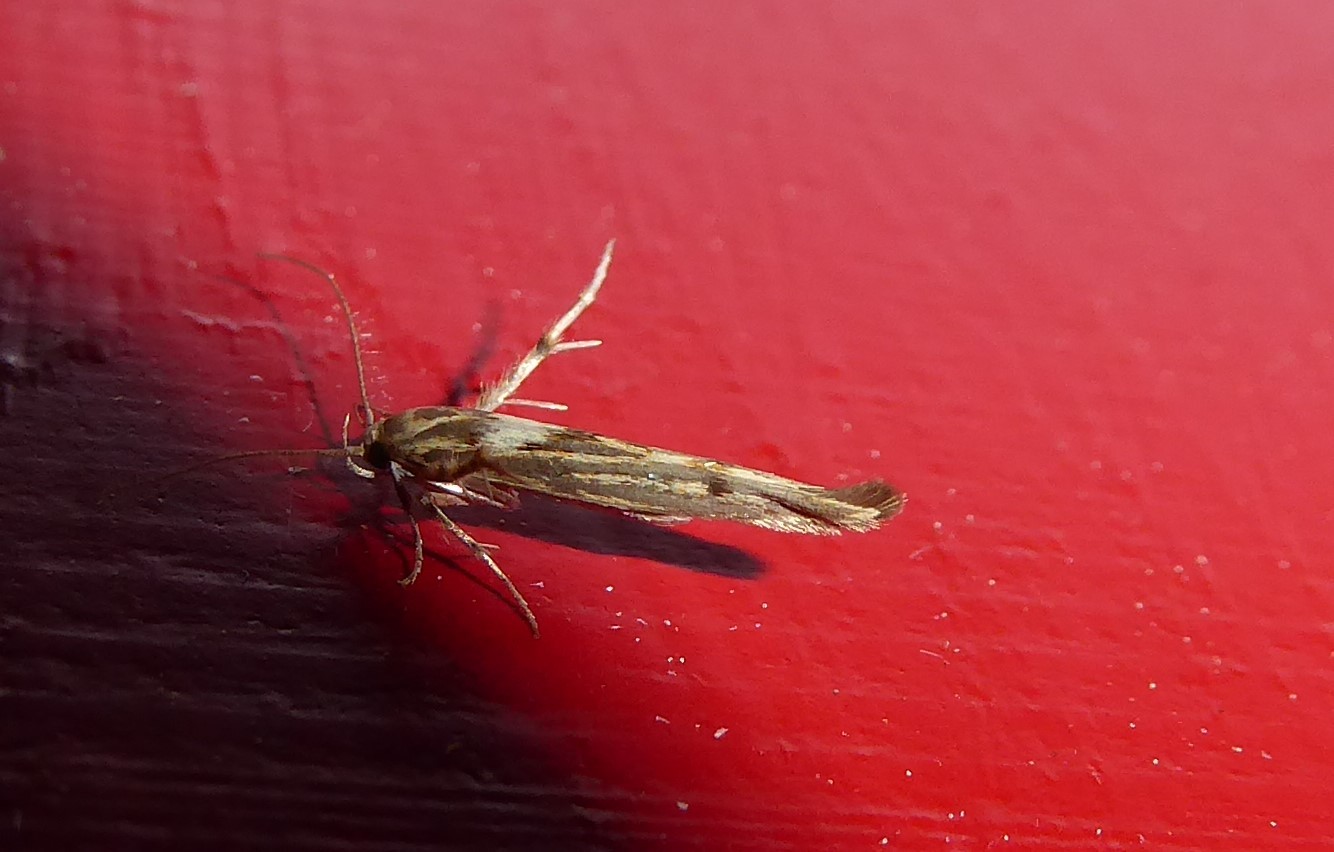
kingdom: Animalia
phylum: Arthropoda
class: Insecta
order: Lepidoptera
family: Stathmopodidae
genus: Stathmopoda
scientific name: Stathmopoda plumbiflua
